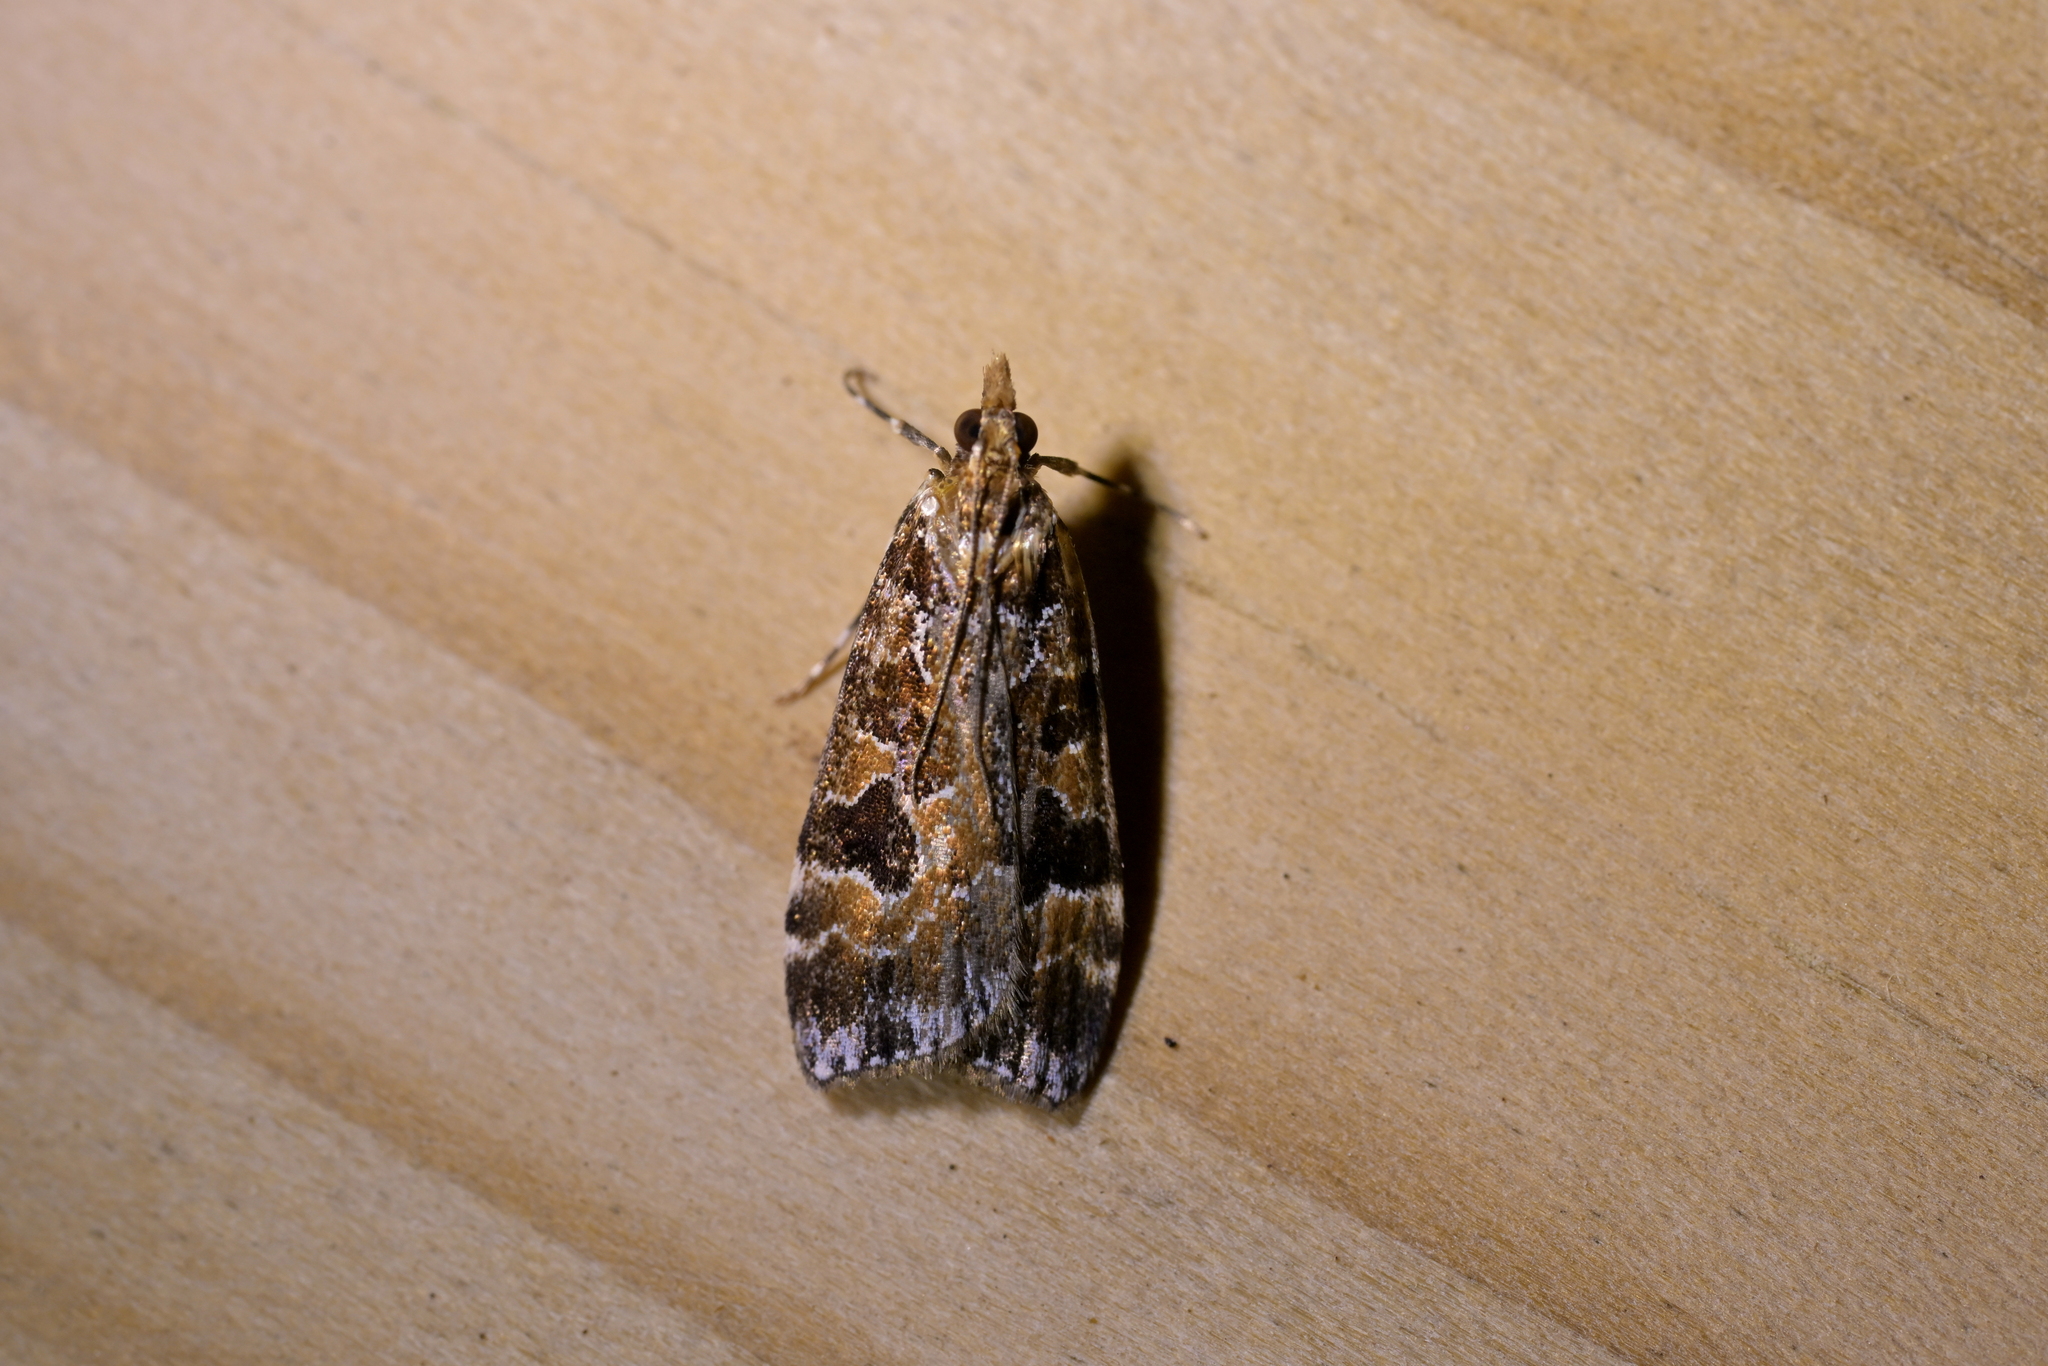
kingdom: Animalia
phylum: Arthropoda
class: Insecta
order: Lepidoptera
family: Crambidae
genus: Scoparia
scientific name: Scoparia ustimacula
